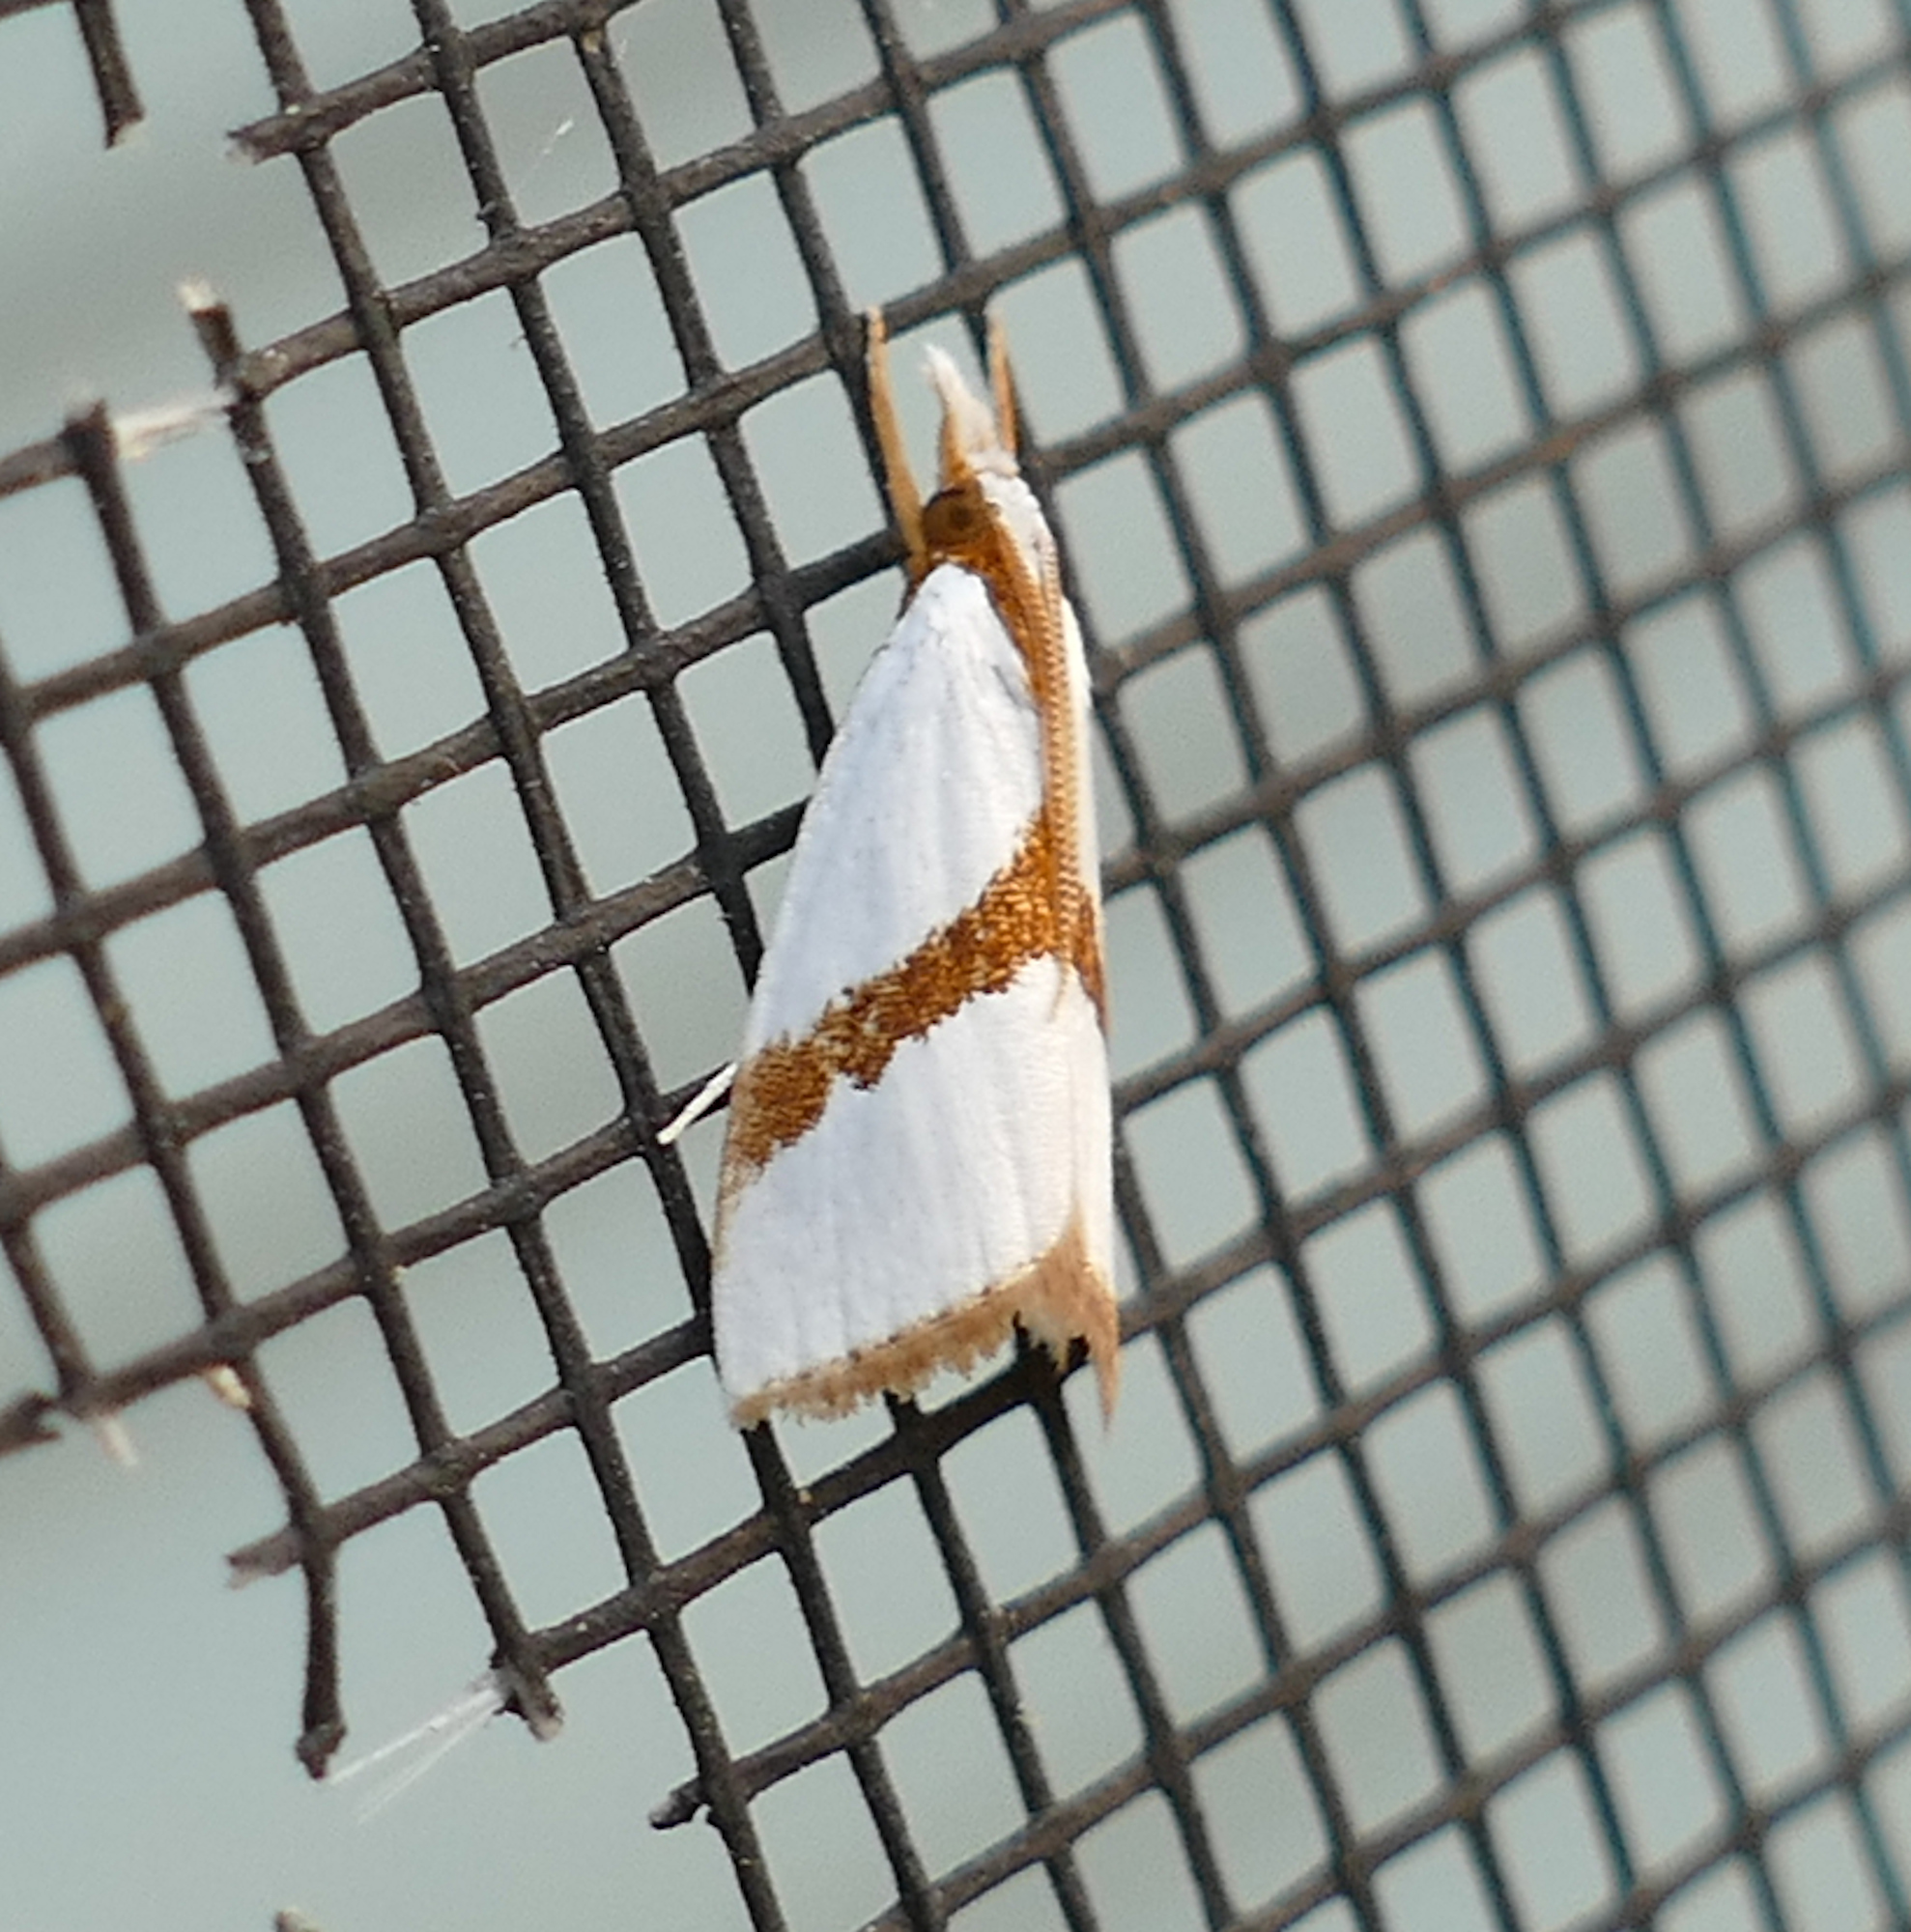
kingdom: Animalia
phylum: Arthropoda
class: Insecta
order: Lepidoptera
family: Crambidae
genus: Vaxi
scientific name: Vaxi critica
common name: Straight-lined vaxi moth
